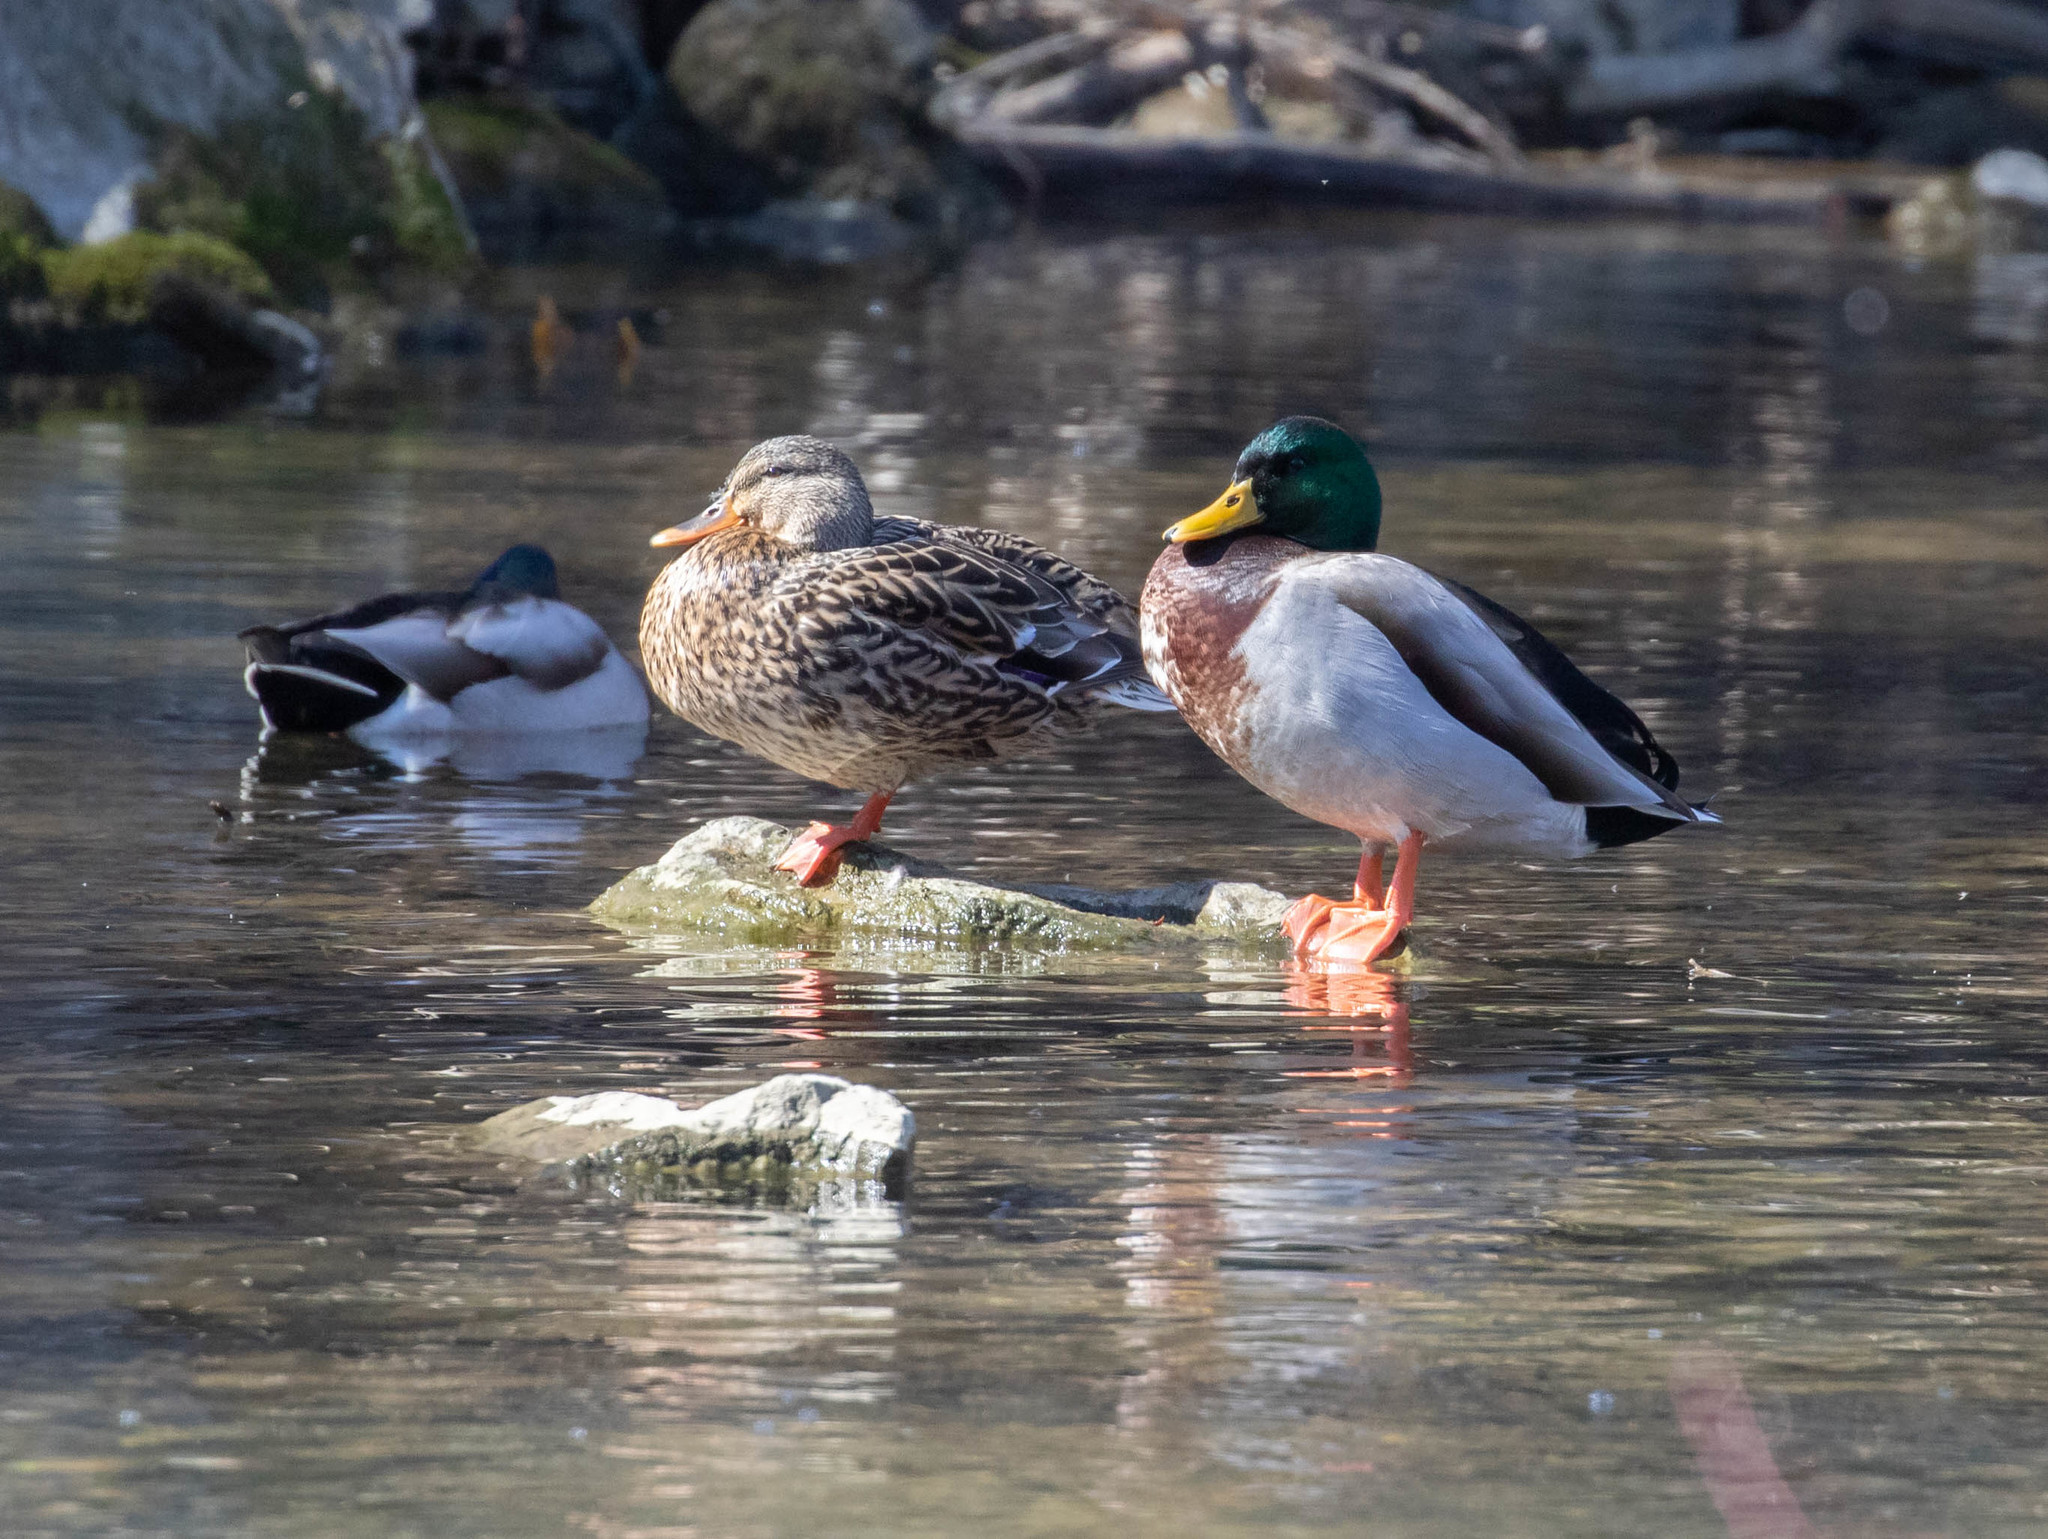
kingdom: Animalia
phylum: Chordata
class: Aves
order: Anseriformes
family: Anatidae
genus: Anas
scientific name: Anas platyrhynchos
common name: Mallard
